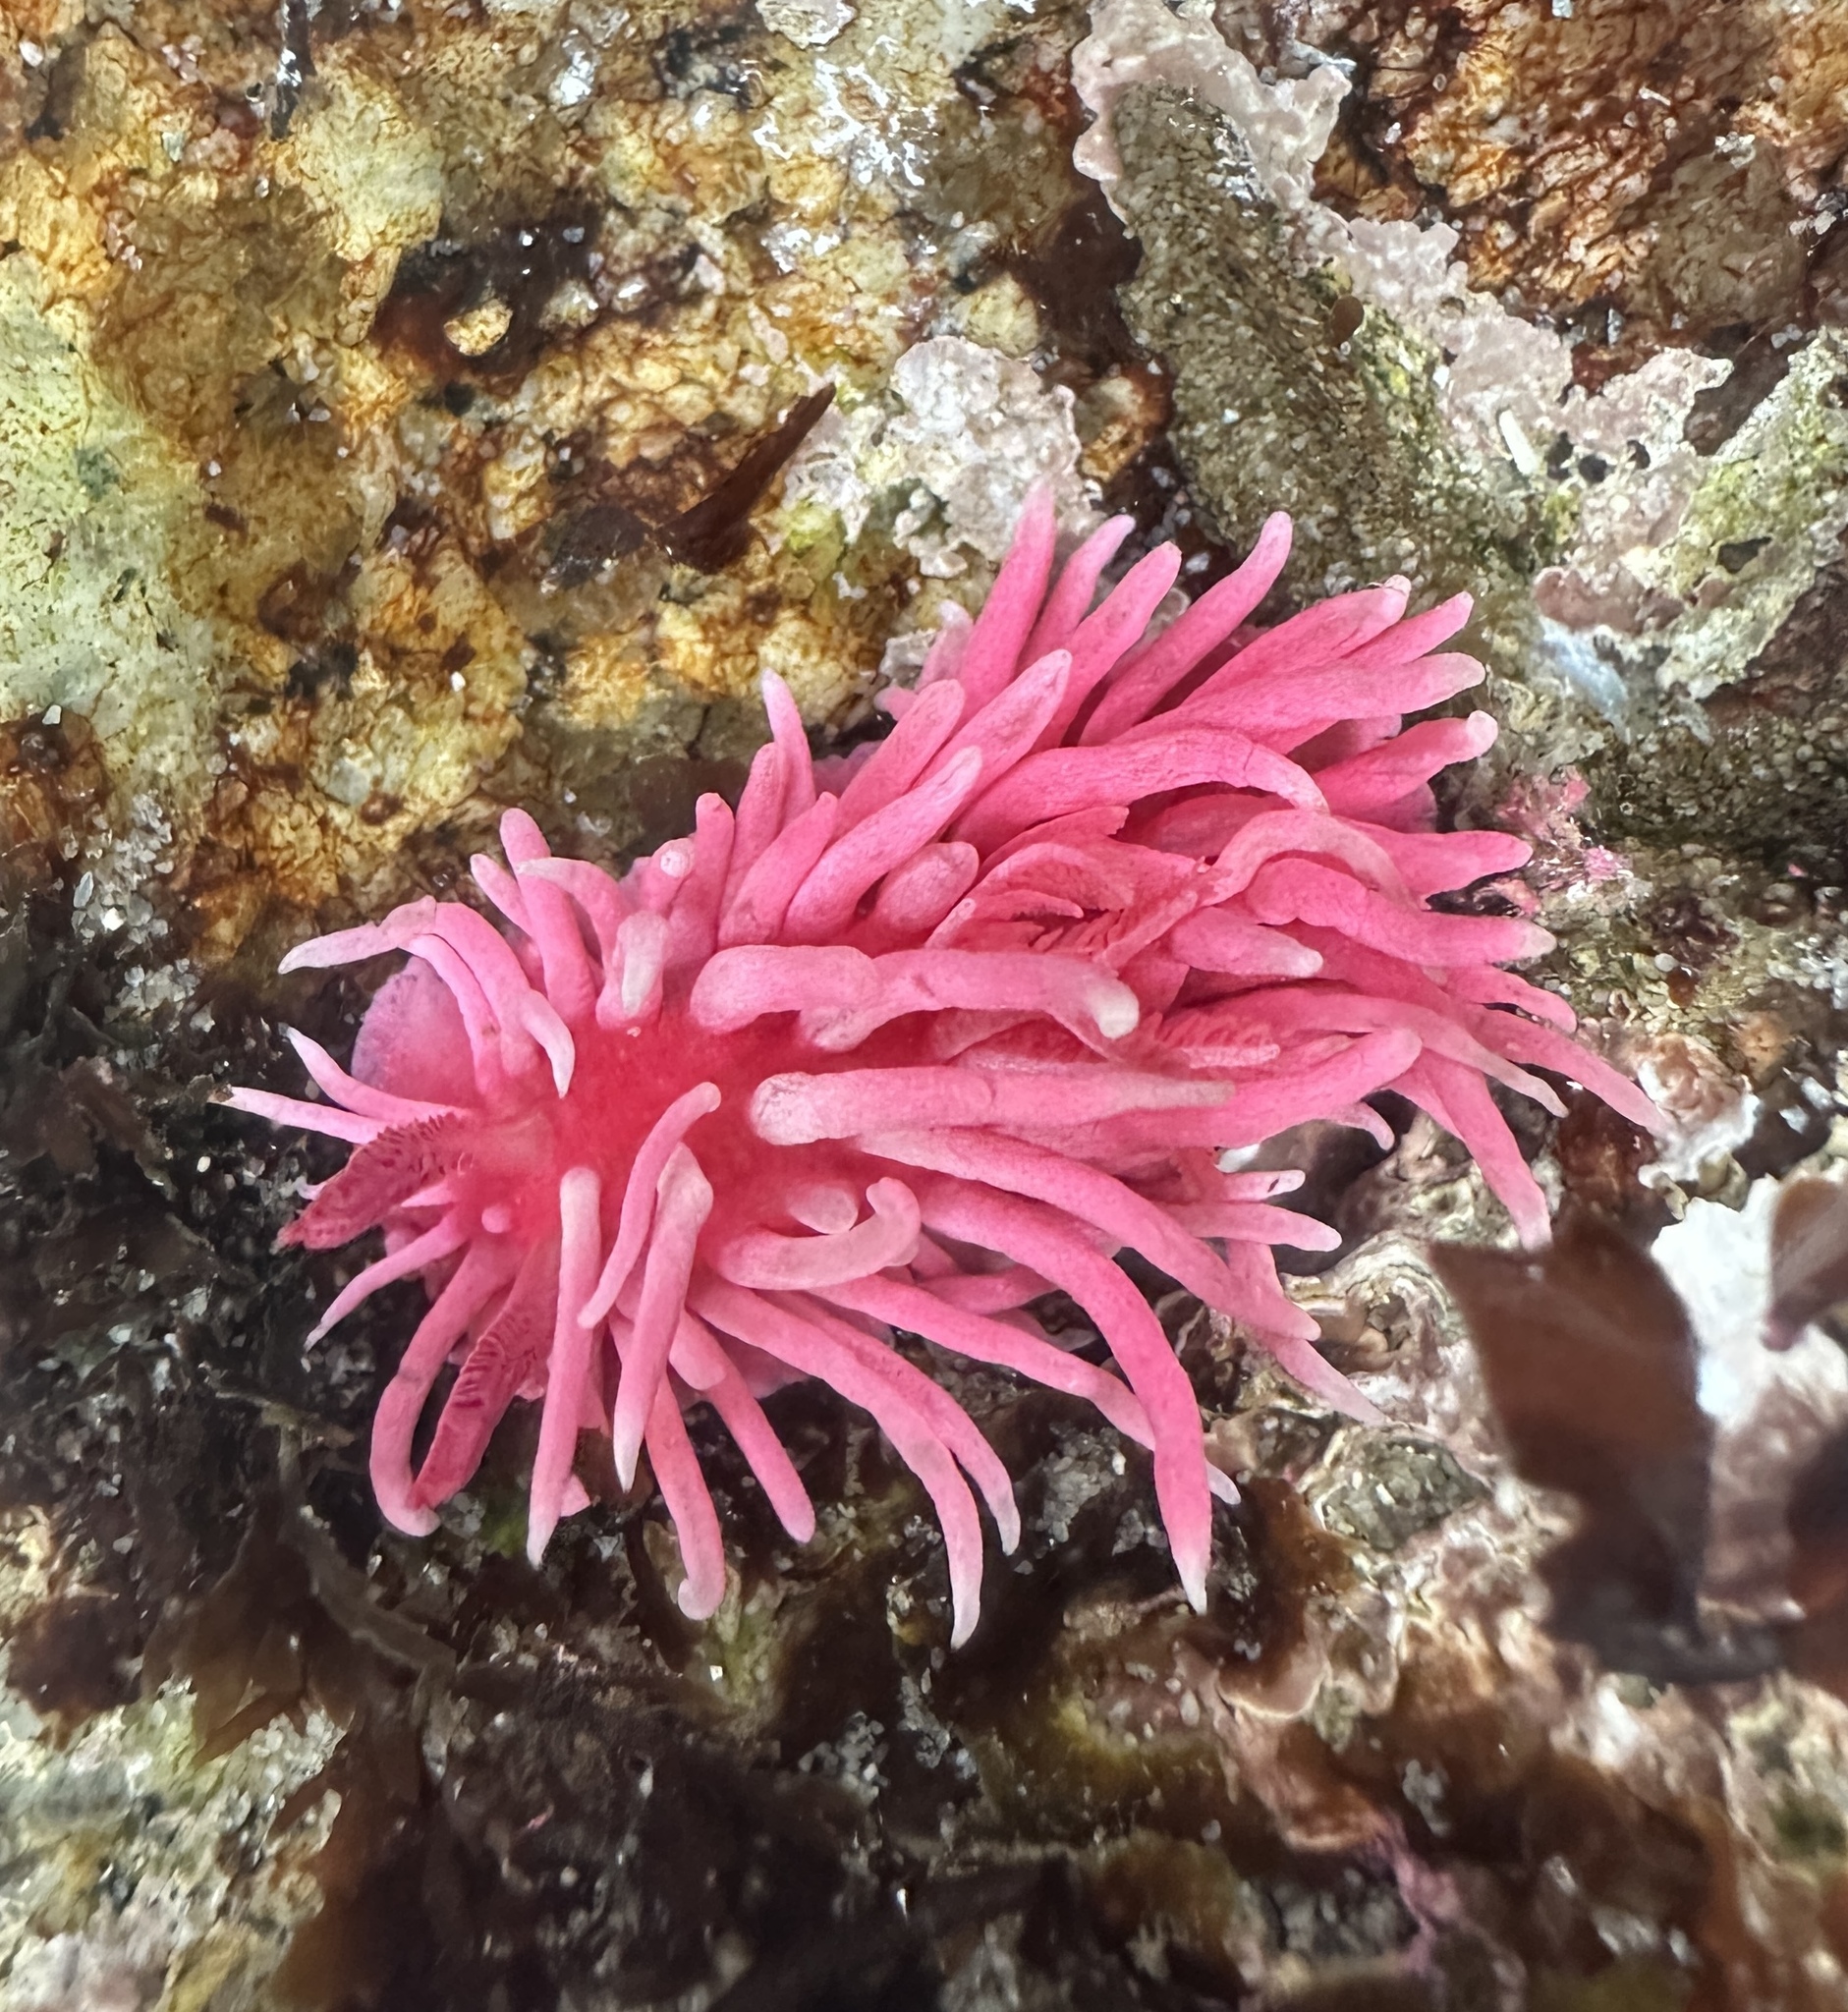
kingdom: Animalia
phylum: Mollusca
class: Gastropoda
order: Nudibranchia
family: Goniodorididae
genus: Okenia
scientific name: Okenia
